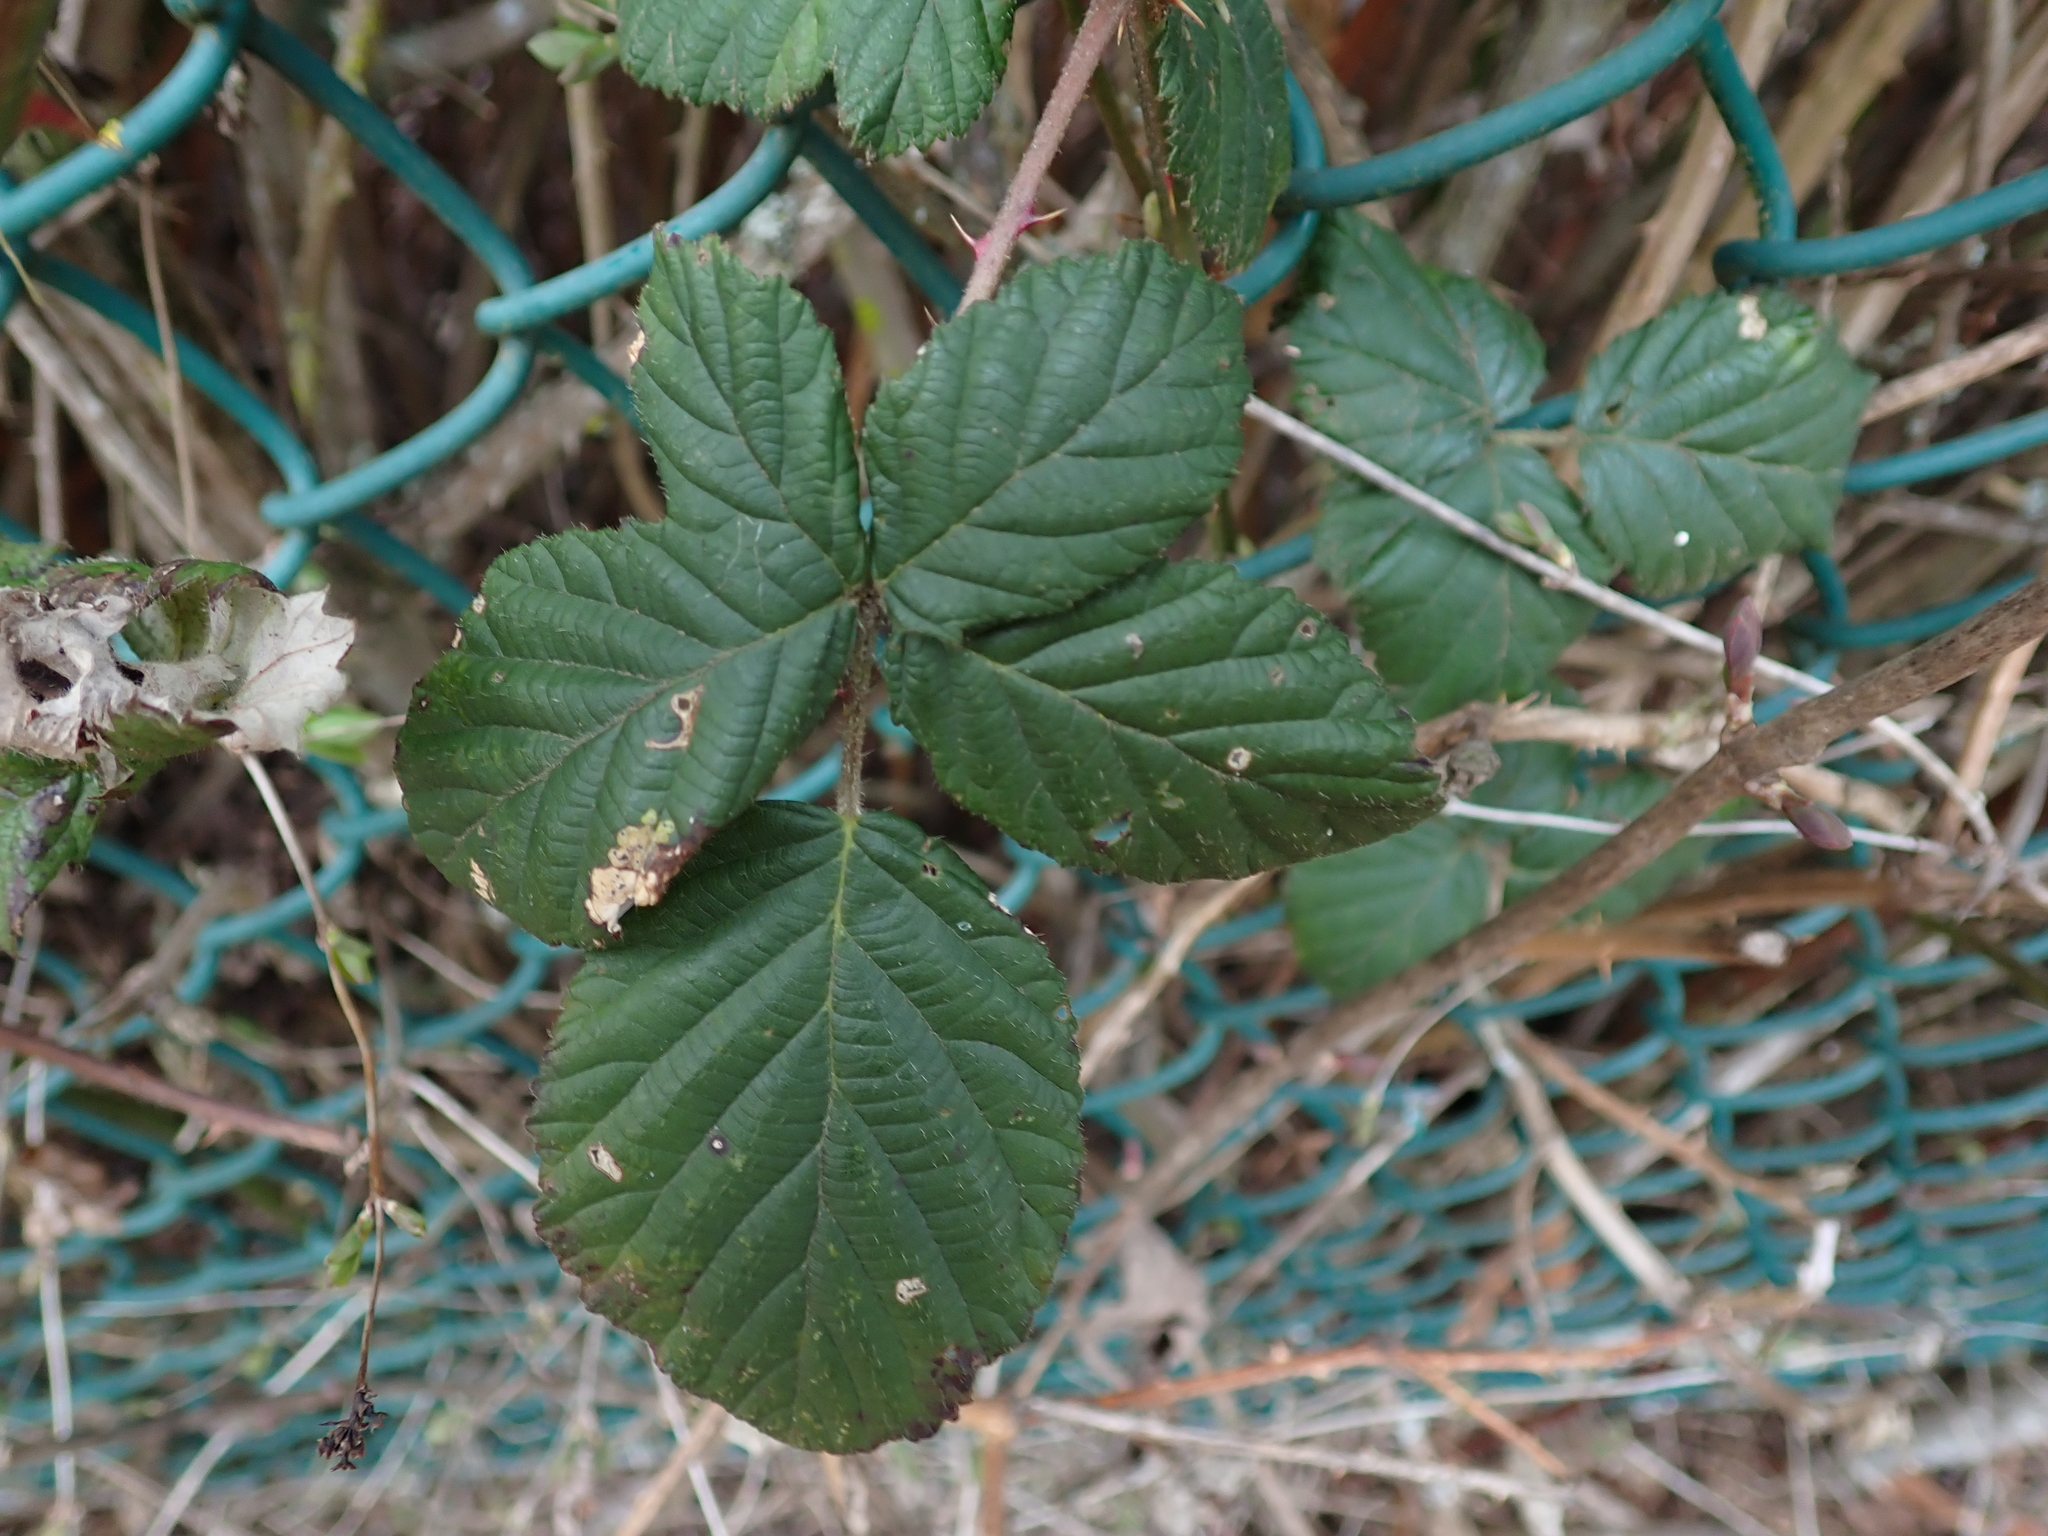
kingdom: Plantae
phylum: Tracheophyta
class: Magnoliopsida
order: Rosales
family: Rosaceae
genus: Rubus
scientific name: Rubus bifrons
